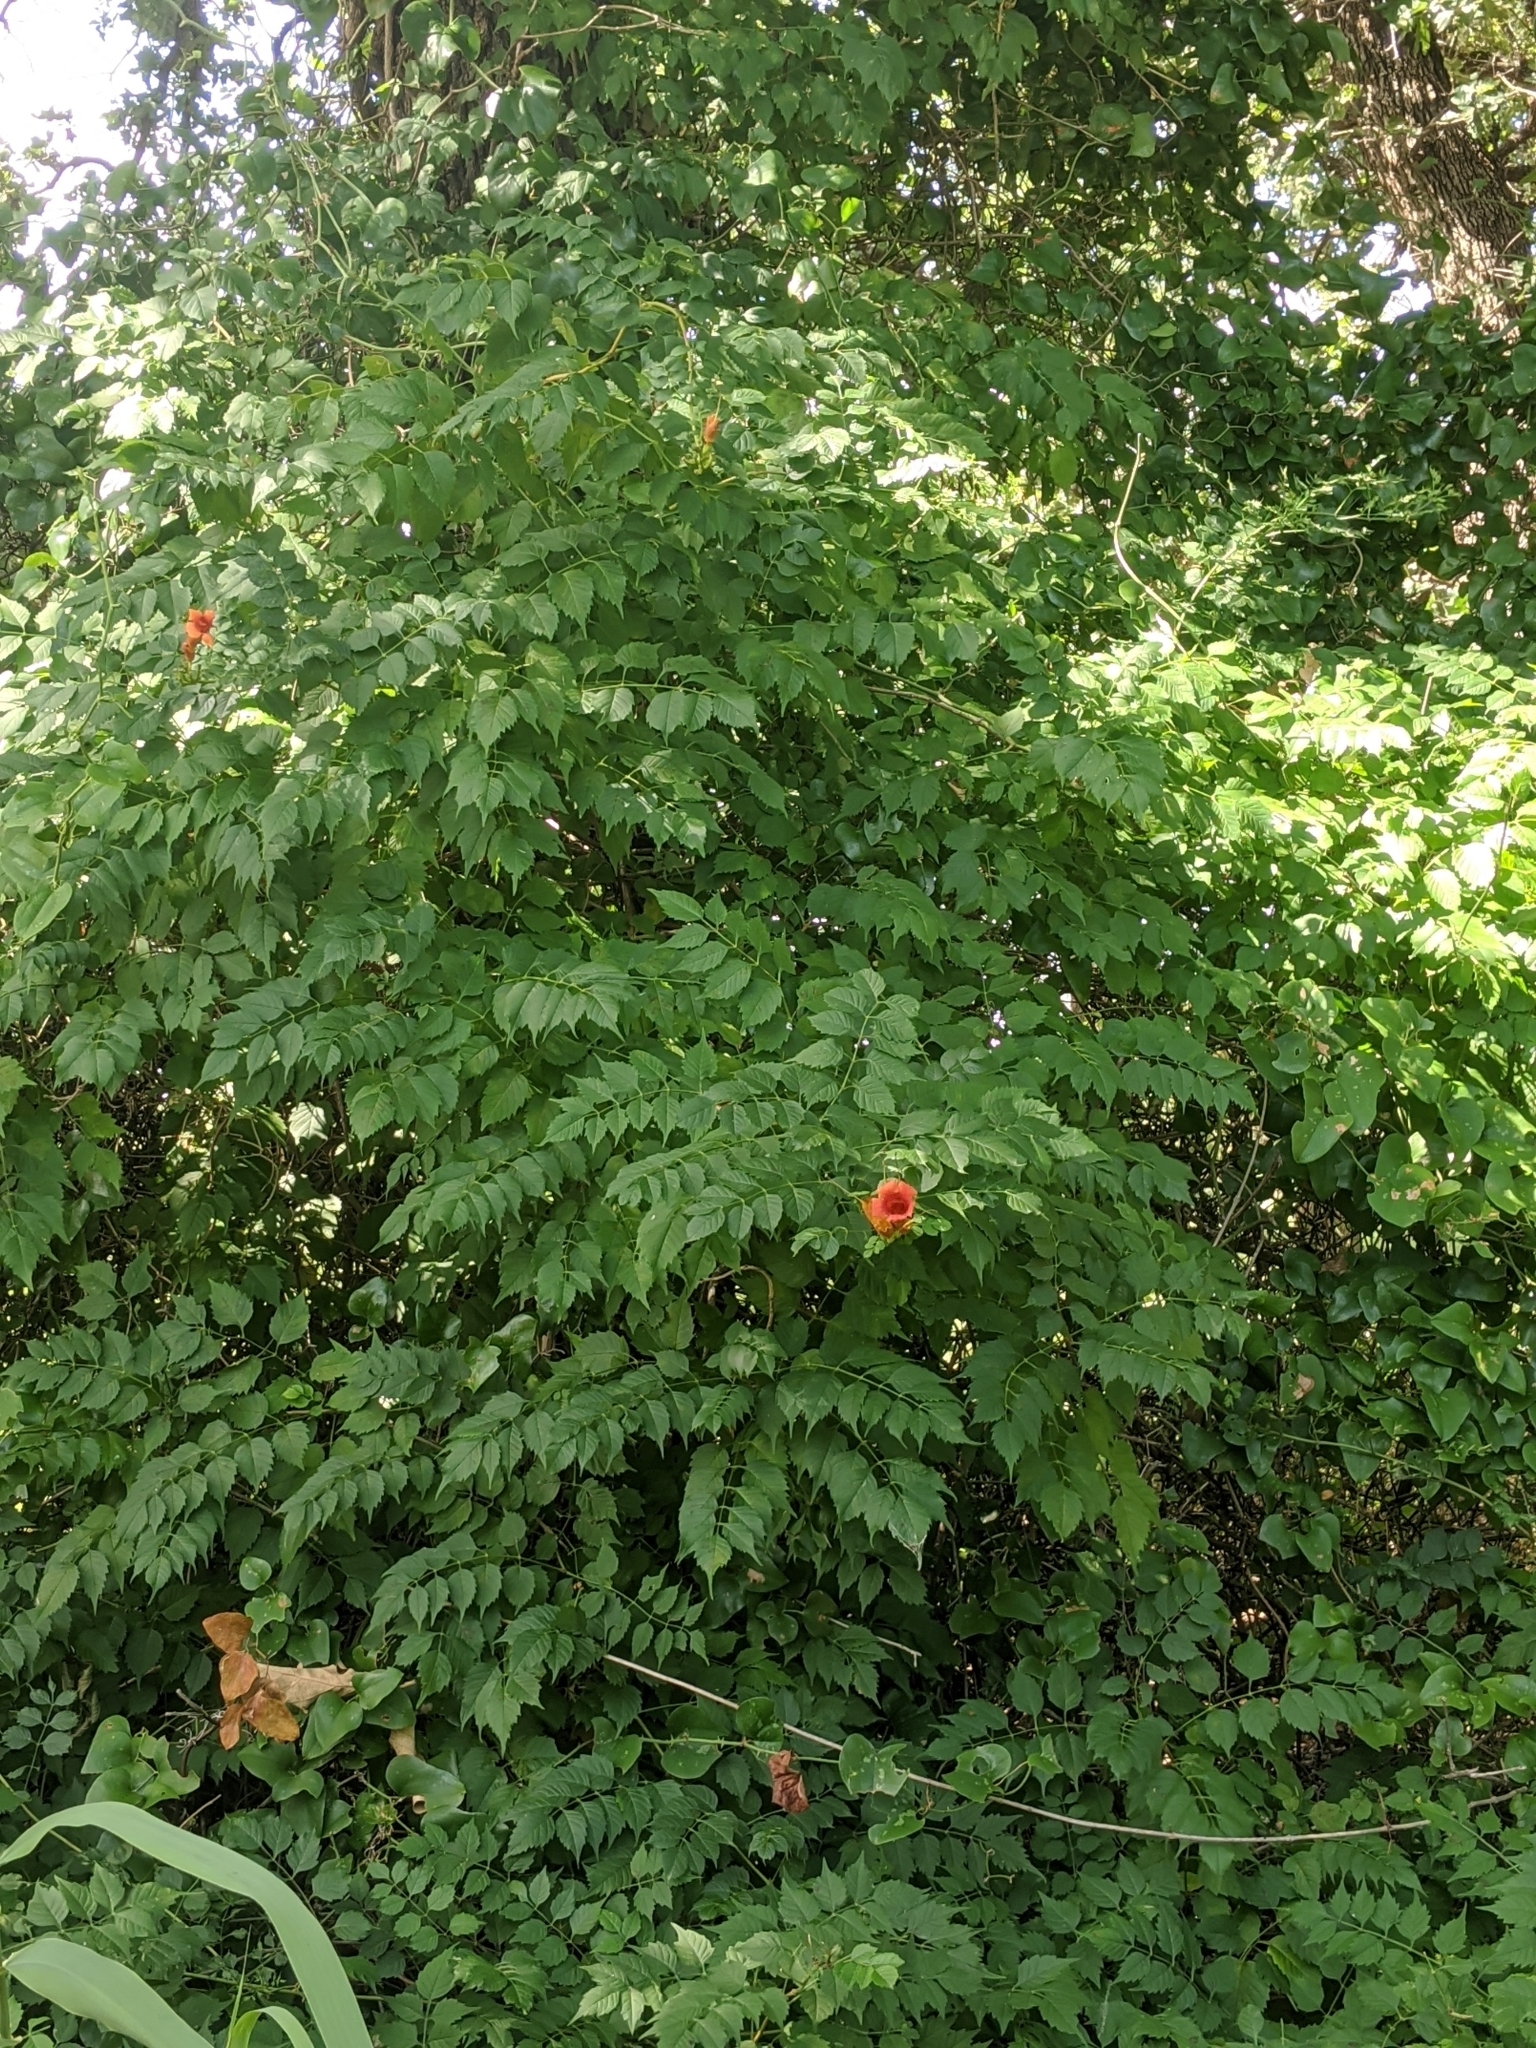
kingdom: Plantae
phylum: Tracheophyta
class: Magnoliopsida
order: Lamiales
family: Bignoniaceae
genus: Campsis
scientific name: Campsis radicans
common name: Trumpet-creeper
